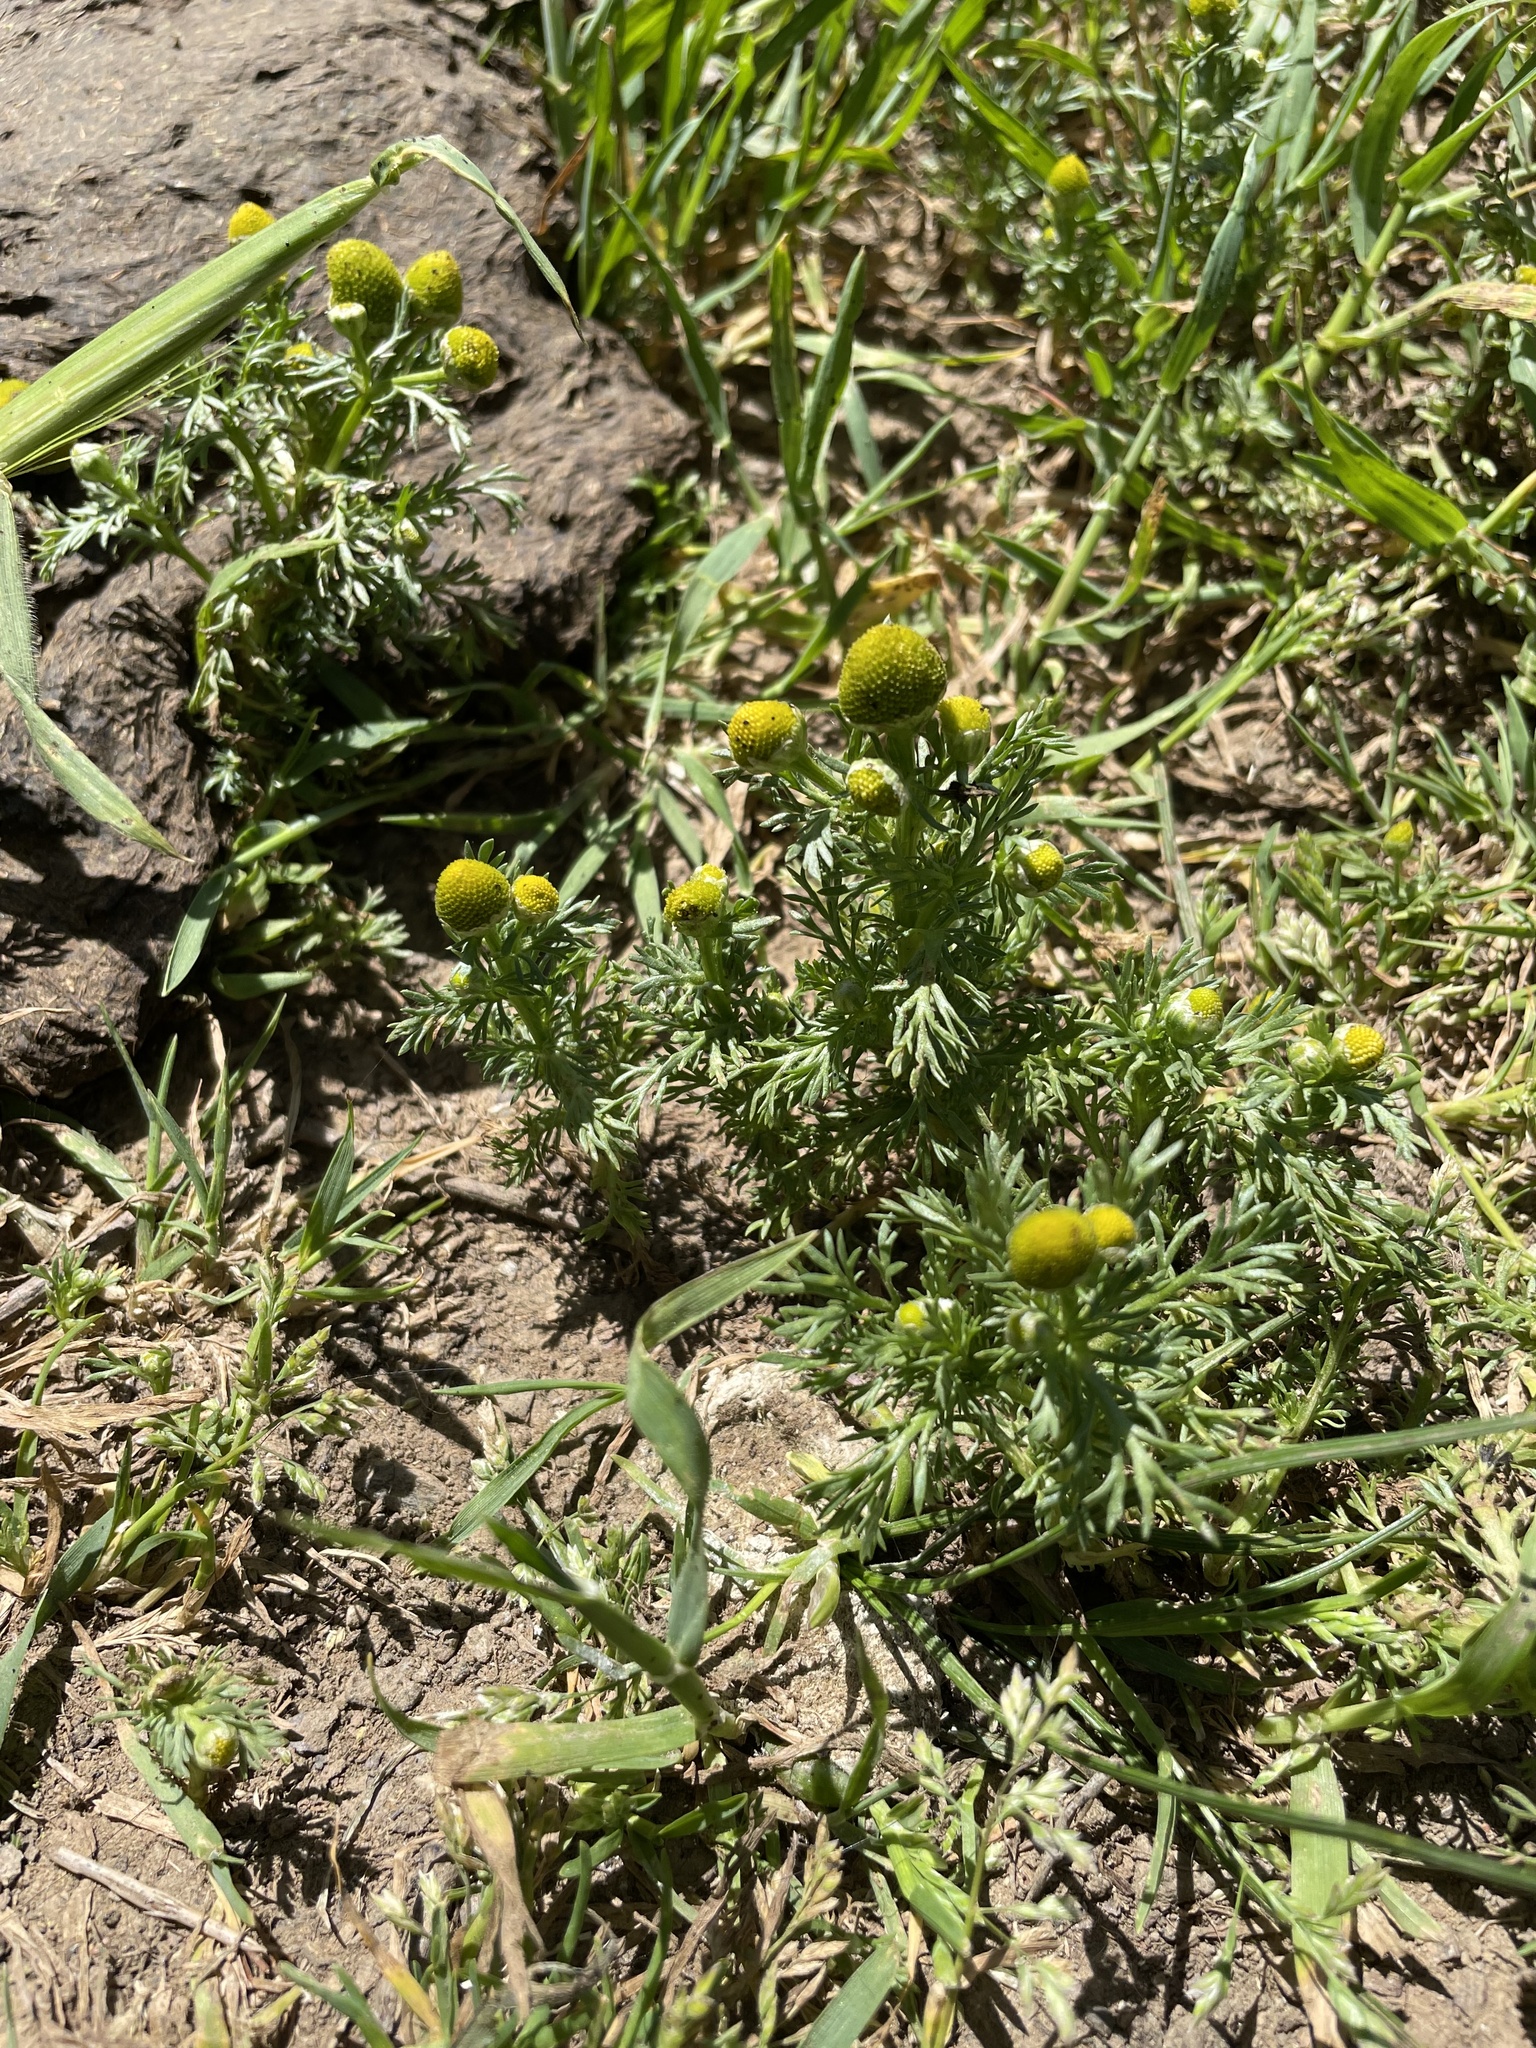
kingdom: Plantae
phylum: Tracheophyta
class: Magnoliopsida
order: Asterales
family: Asteraceae
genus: Matricaria
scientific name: Matricaria discoidea
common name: Disc mayweed
